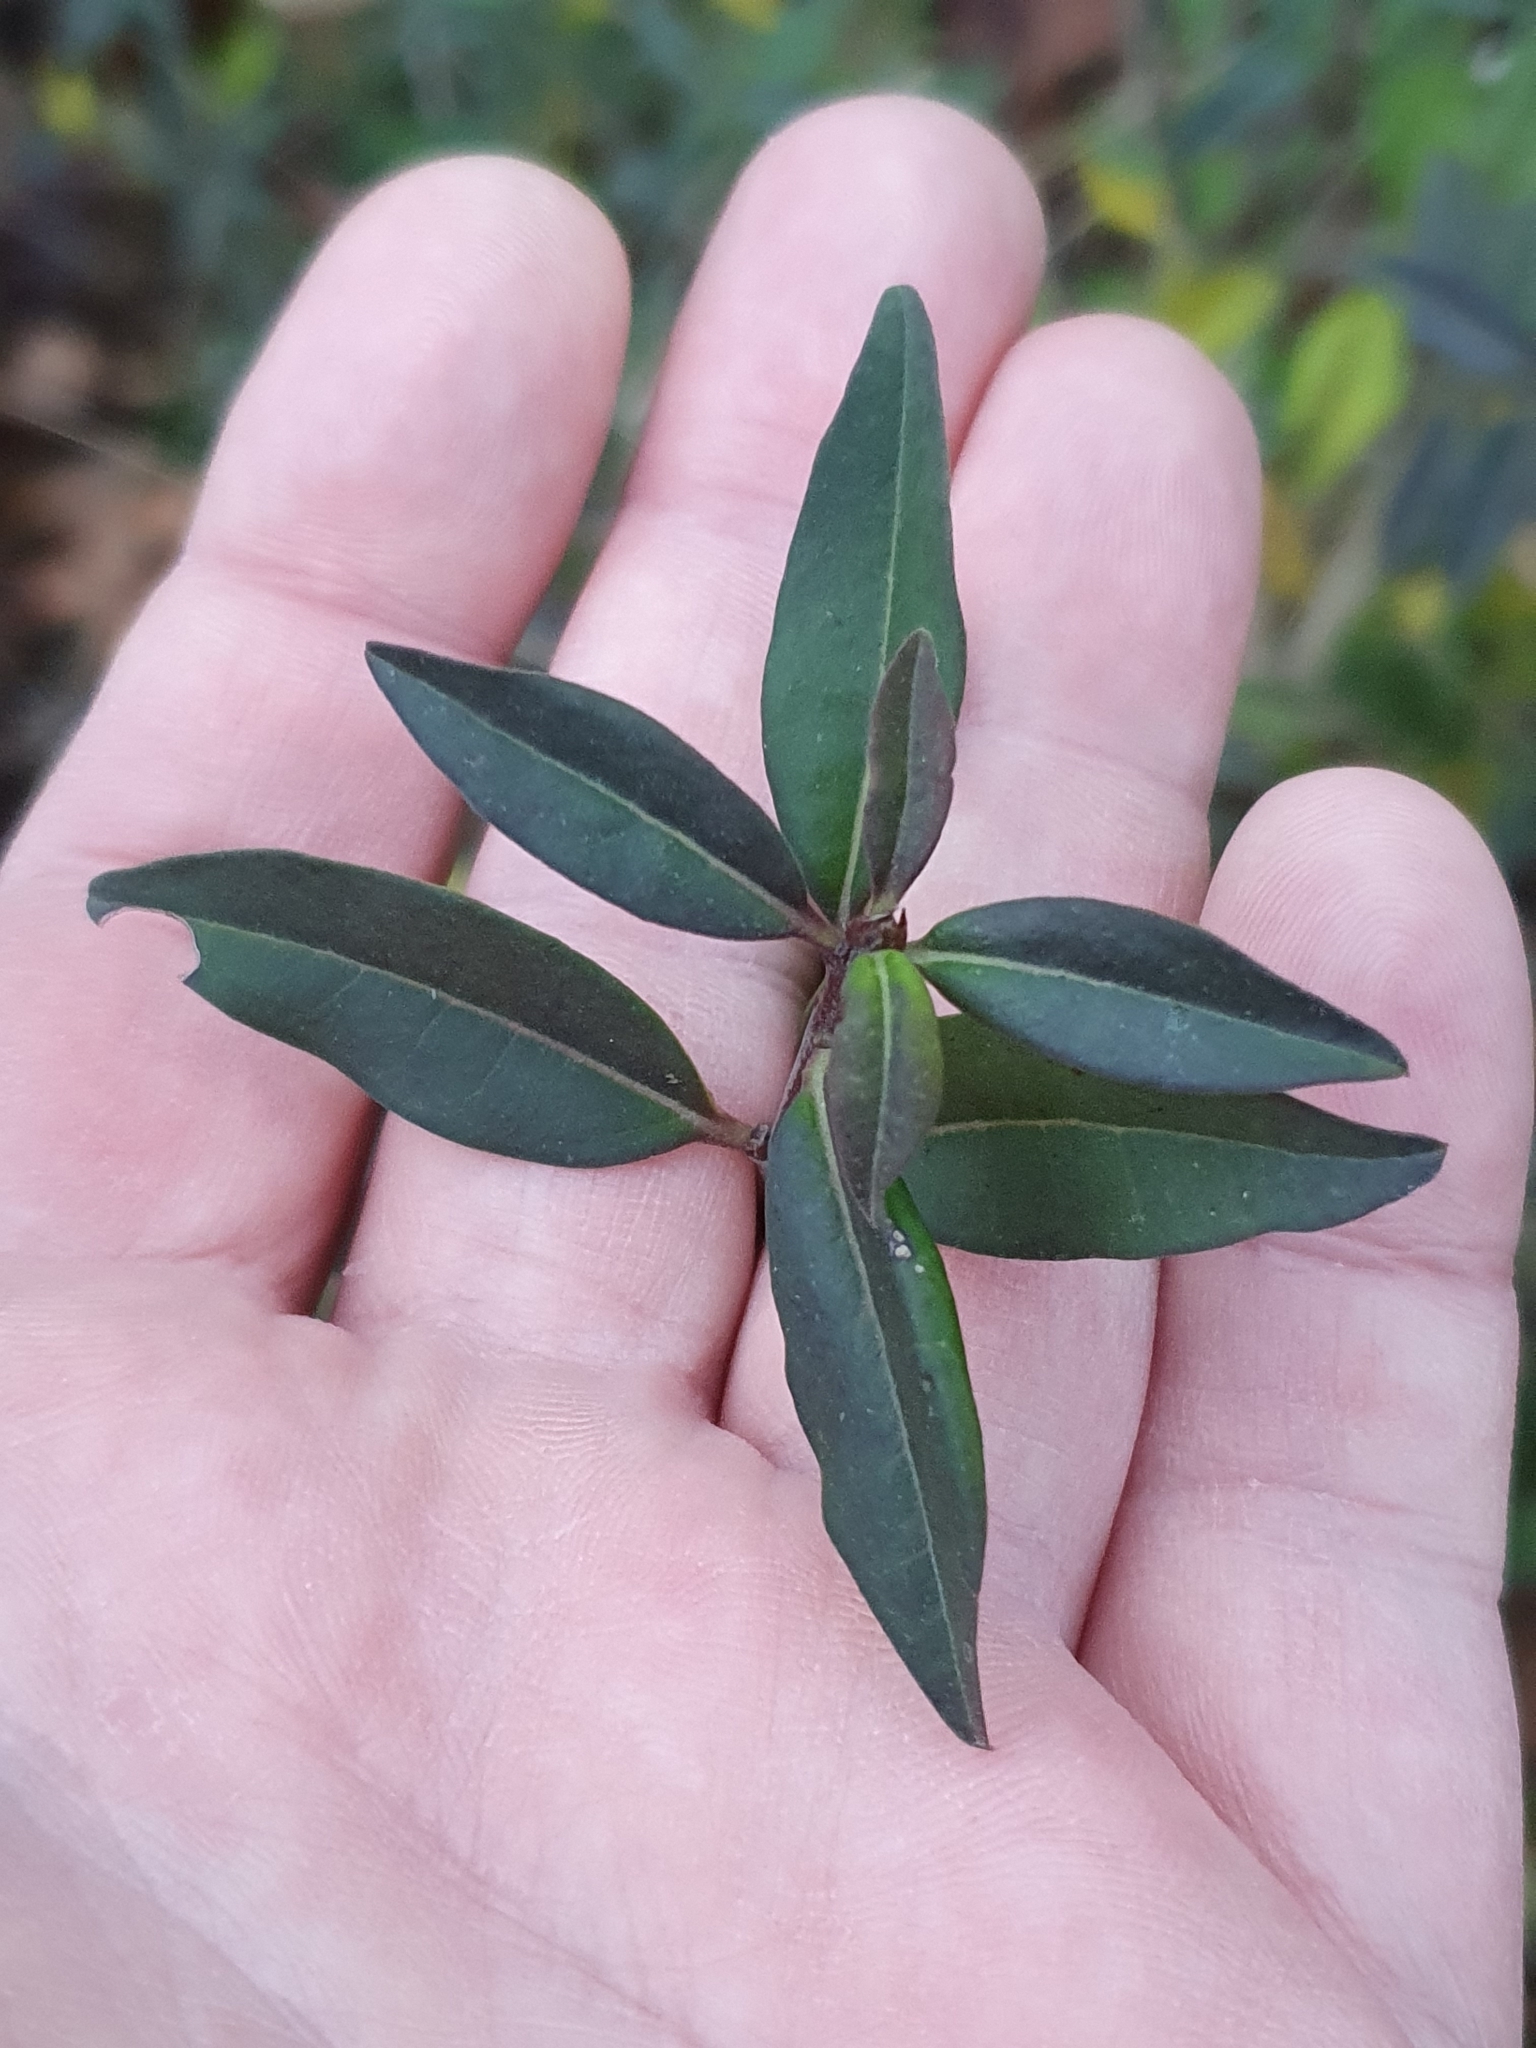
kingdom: Plantae
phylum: Tracheophyta
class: Magnoliopsida
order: Lamiales
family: Oleaceae
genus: Ligustrum
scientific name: Ligustrum vulgare
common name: Wild privet
